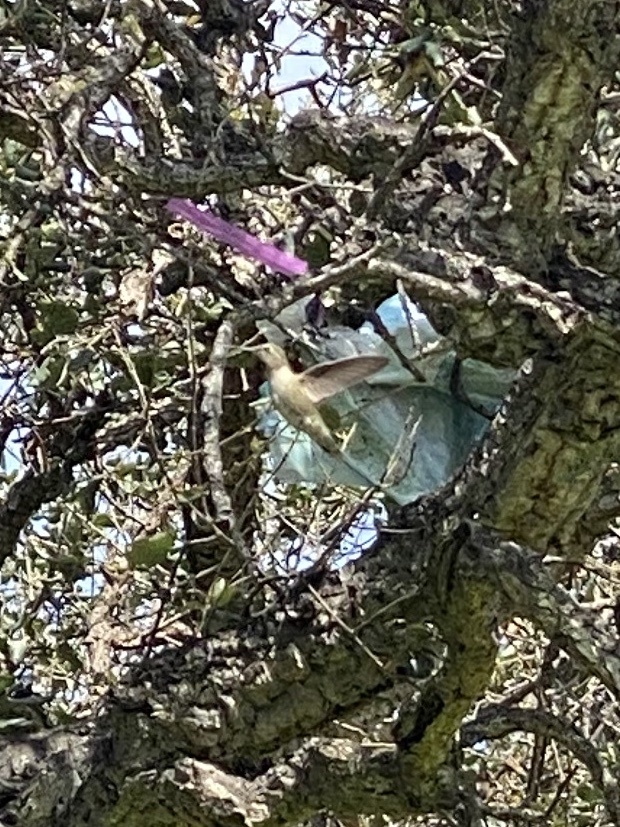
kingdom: Animalia
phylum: Chordata
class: Aves
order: Apodiformes
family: Trochilidae
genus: Calypte
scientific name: Calypte anna
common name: Anna's hummingbird
